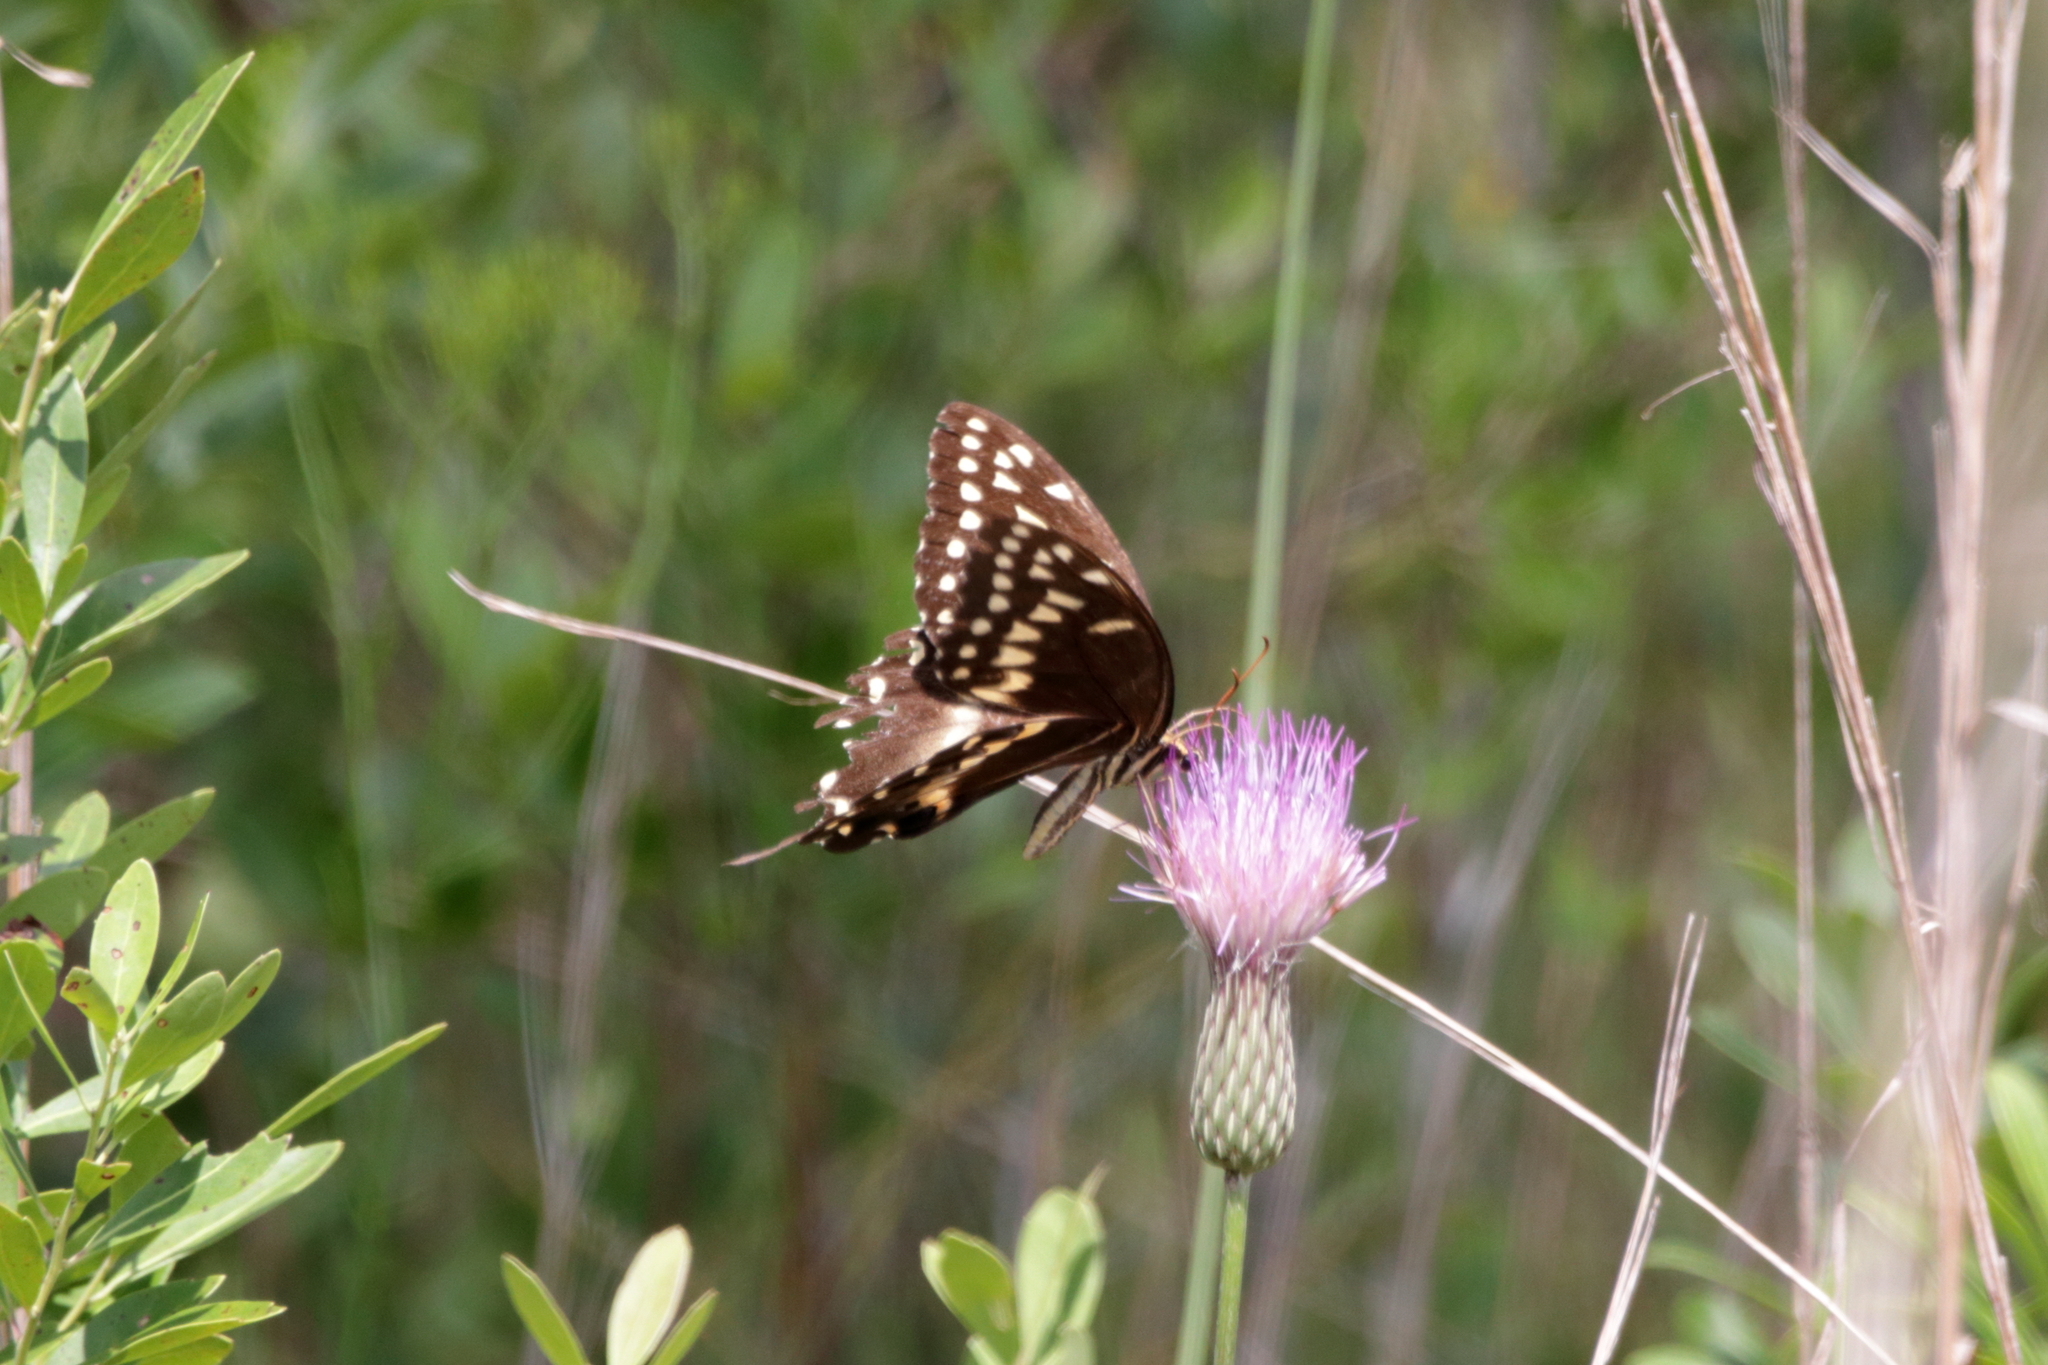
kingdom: Animalia
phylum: Arthropoda
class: Insecta
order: Lepidoptera
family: Papilionidae
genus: Papilio
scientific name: Papilio palamedes
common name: Palamedes swallowtail
